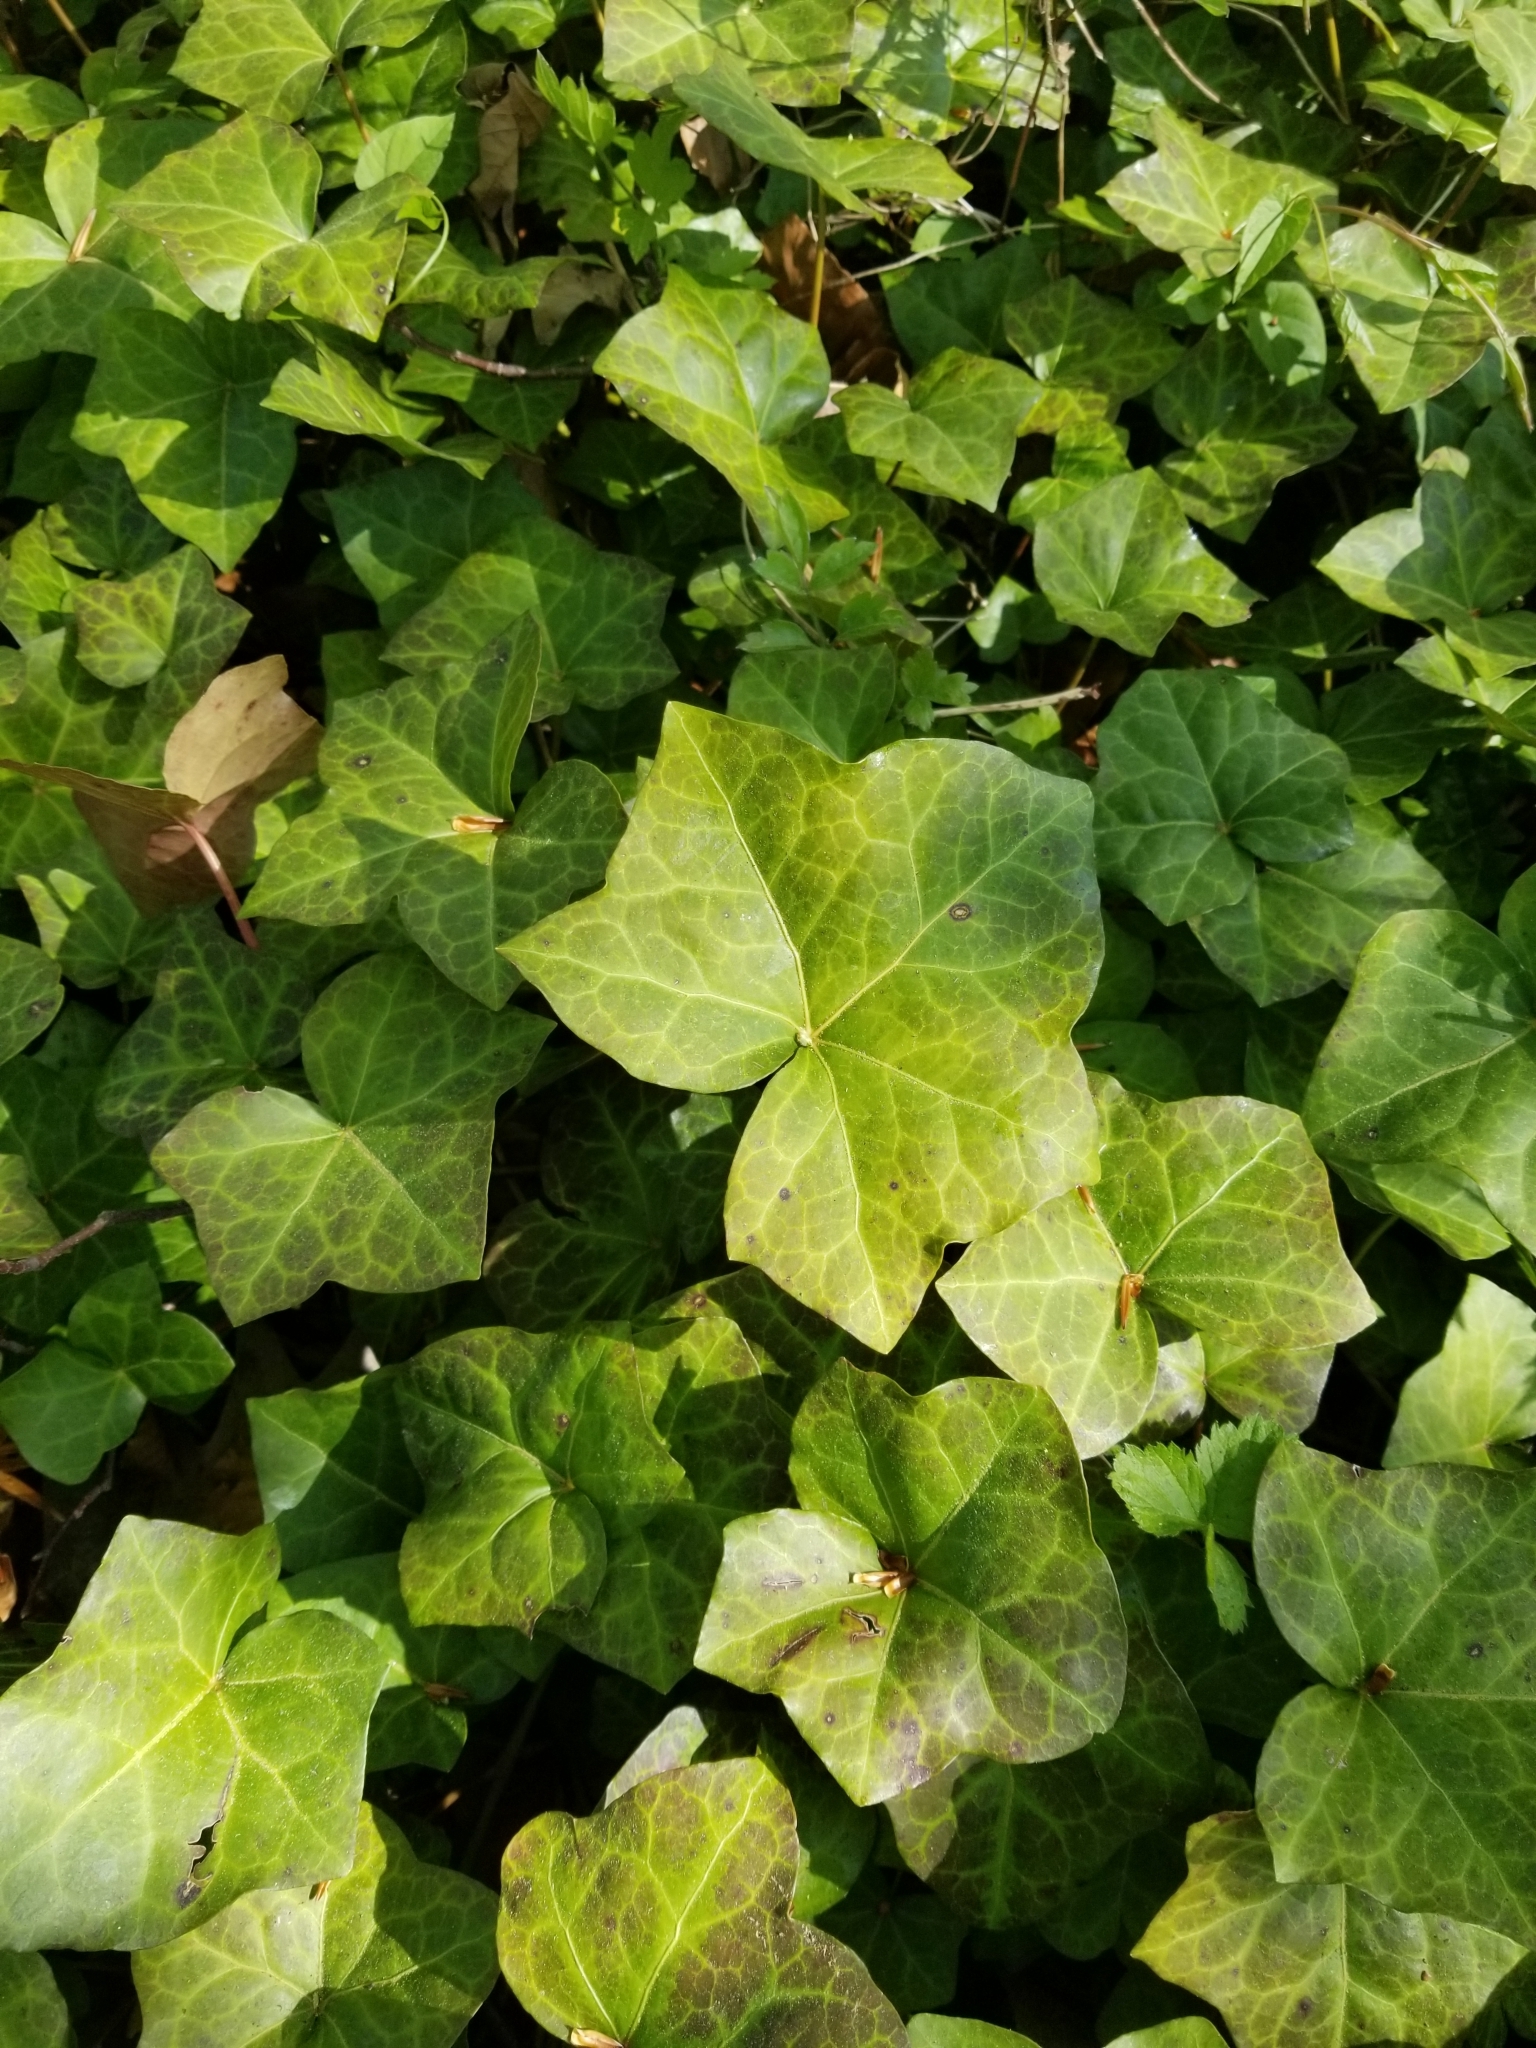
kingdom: Plantae
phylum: Tracheophyta
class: Magnoliopsida
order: Apiales
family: Araliaceae
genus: Hedera
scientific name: Hedera helix
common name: Ivy
